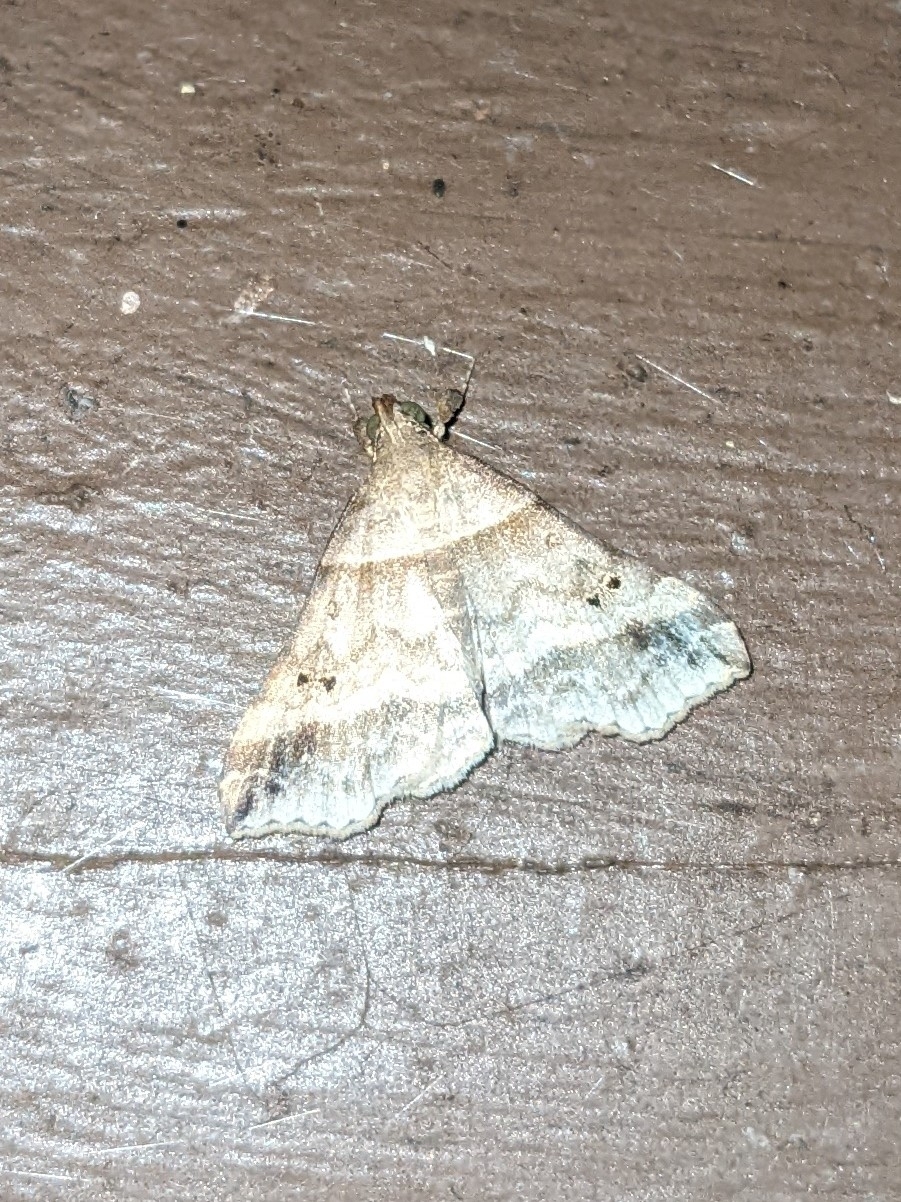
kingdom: Animalia
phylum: Arthropoda
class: Insecta
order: Lepidoptera
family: Erebidae
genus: Phaeolita
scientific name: Phaeolita pyramusalis
